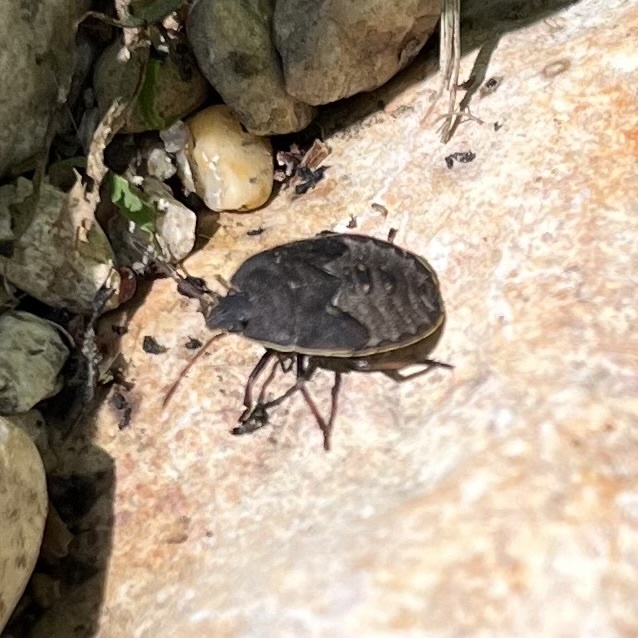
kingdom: Animalia
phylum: Arthropoda
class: Insecta
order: Hemiptera
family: Pentatomidae
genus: Menecles
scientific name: Menecles insertus
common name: Elf shoe stink bug
